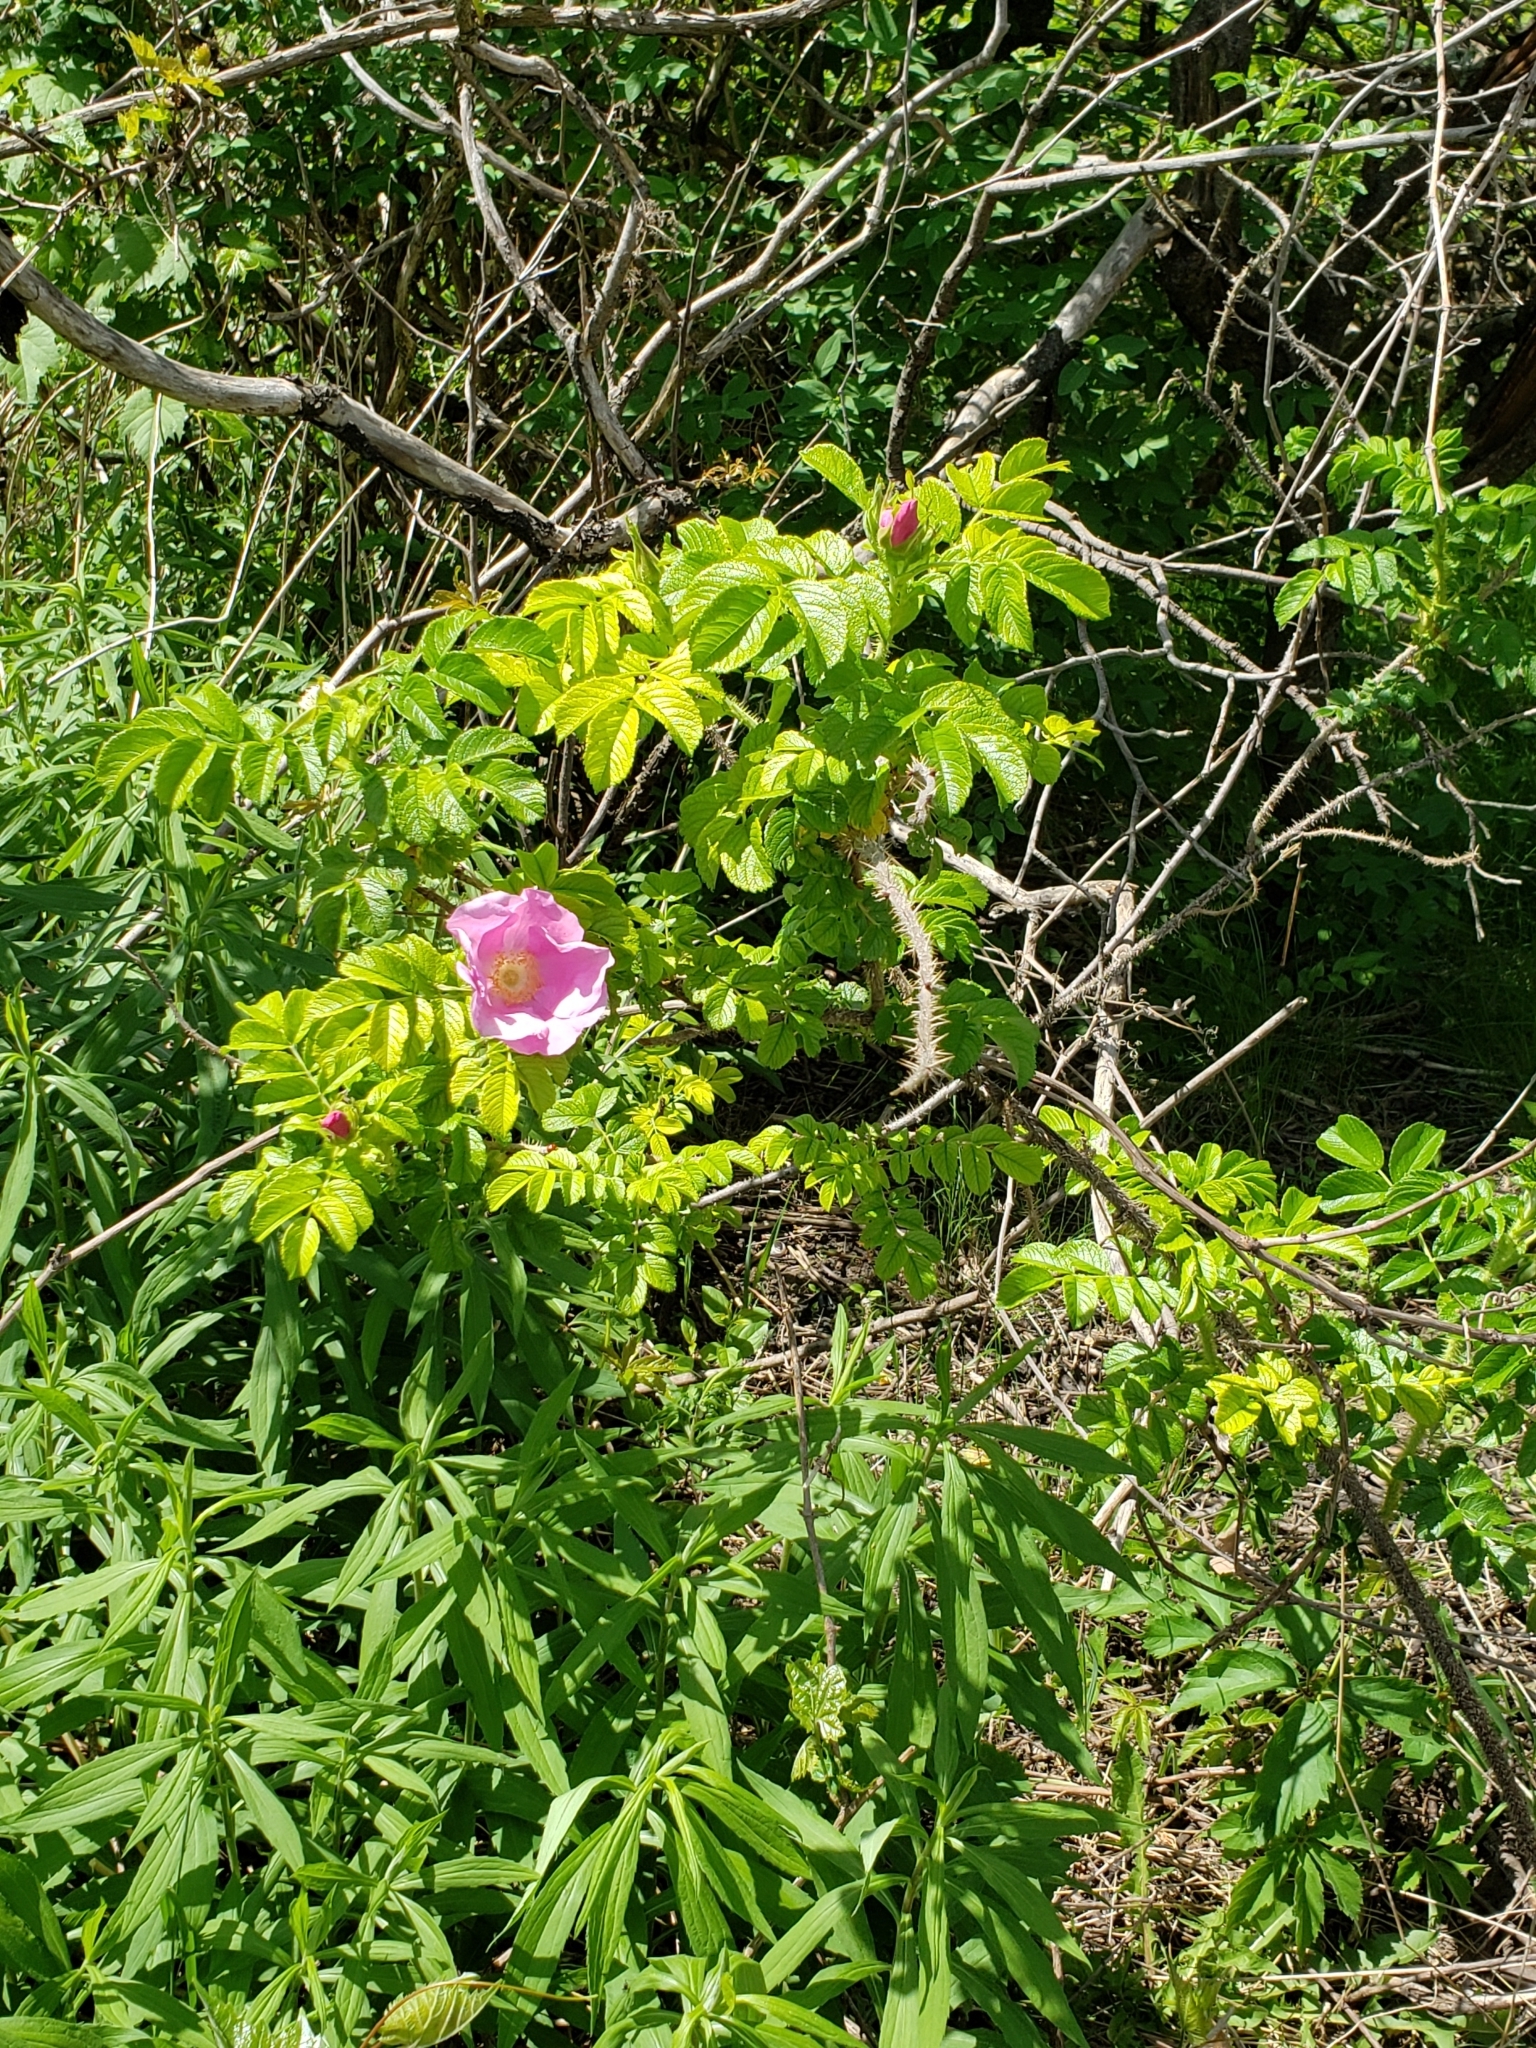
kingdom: Plantae
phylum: Tracheophyta
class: Magnoliopsida
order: Rosales
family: Rosaceae
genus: Rosa
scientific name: Rosa rugosa
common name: Japanese rose
